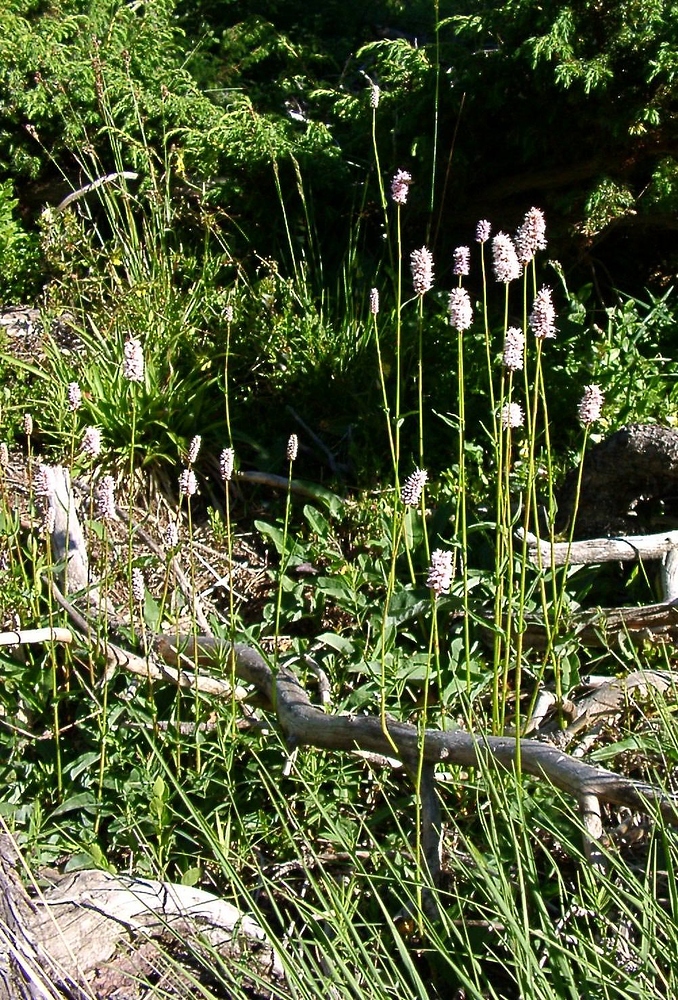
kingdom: Plantae
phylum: Tracheophyta
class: Magnoliopsida
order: Caryophyllales
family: Polygonaceae
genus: Bistorta
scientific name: Bistorta officinalis
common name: Common bistort
